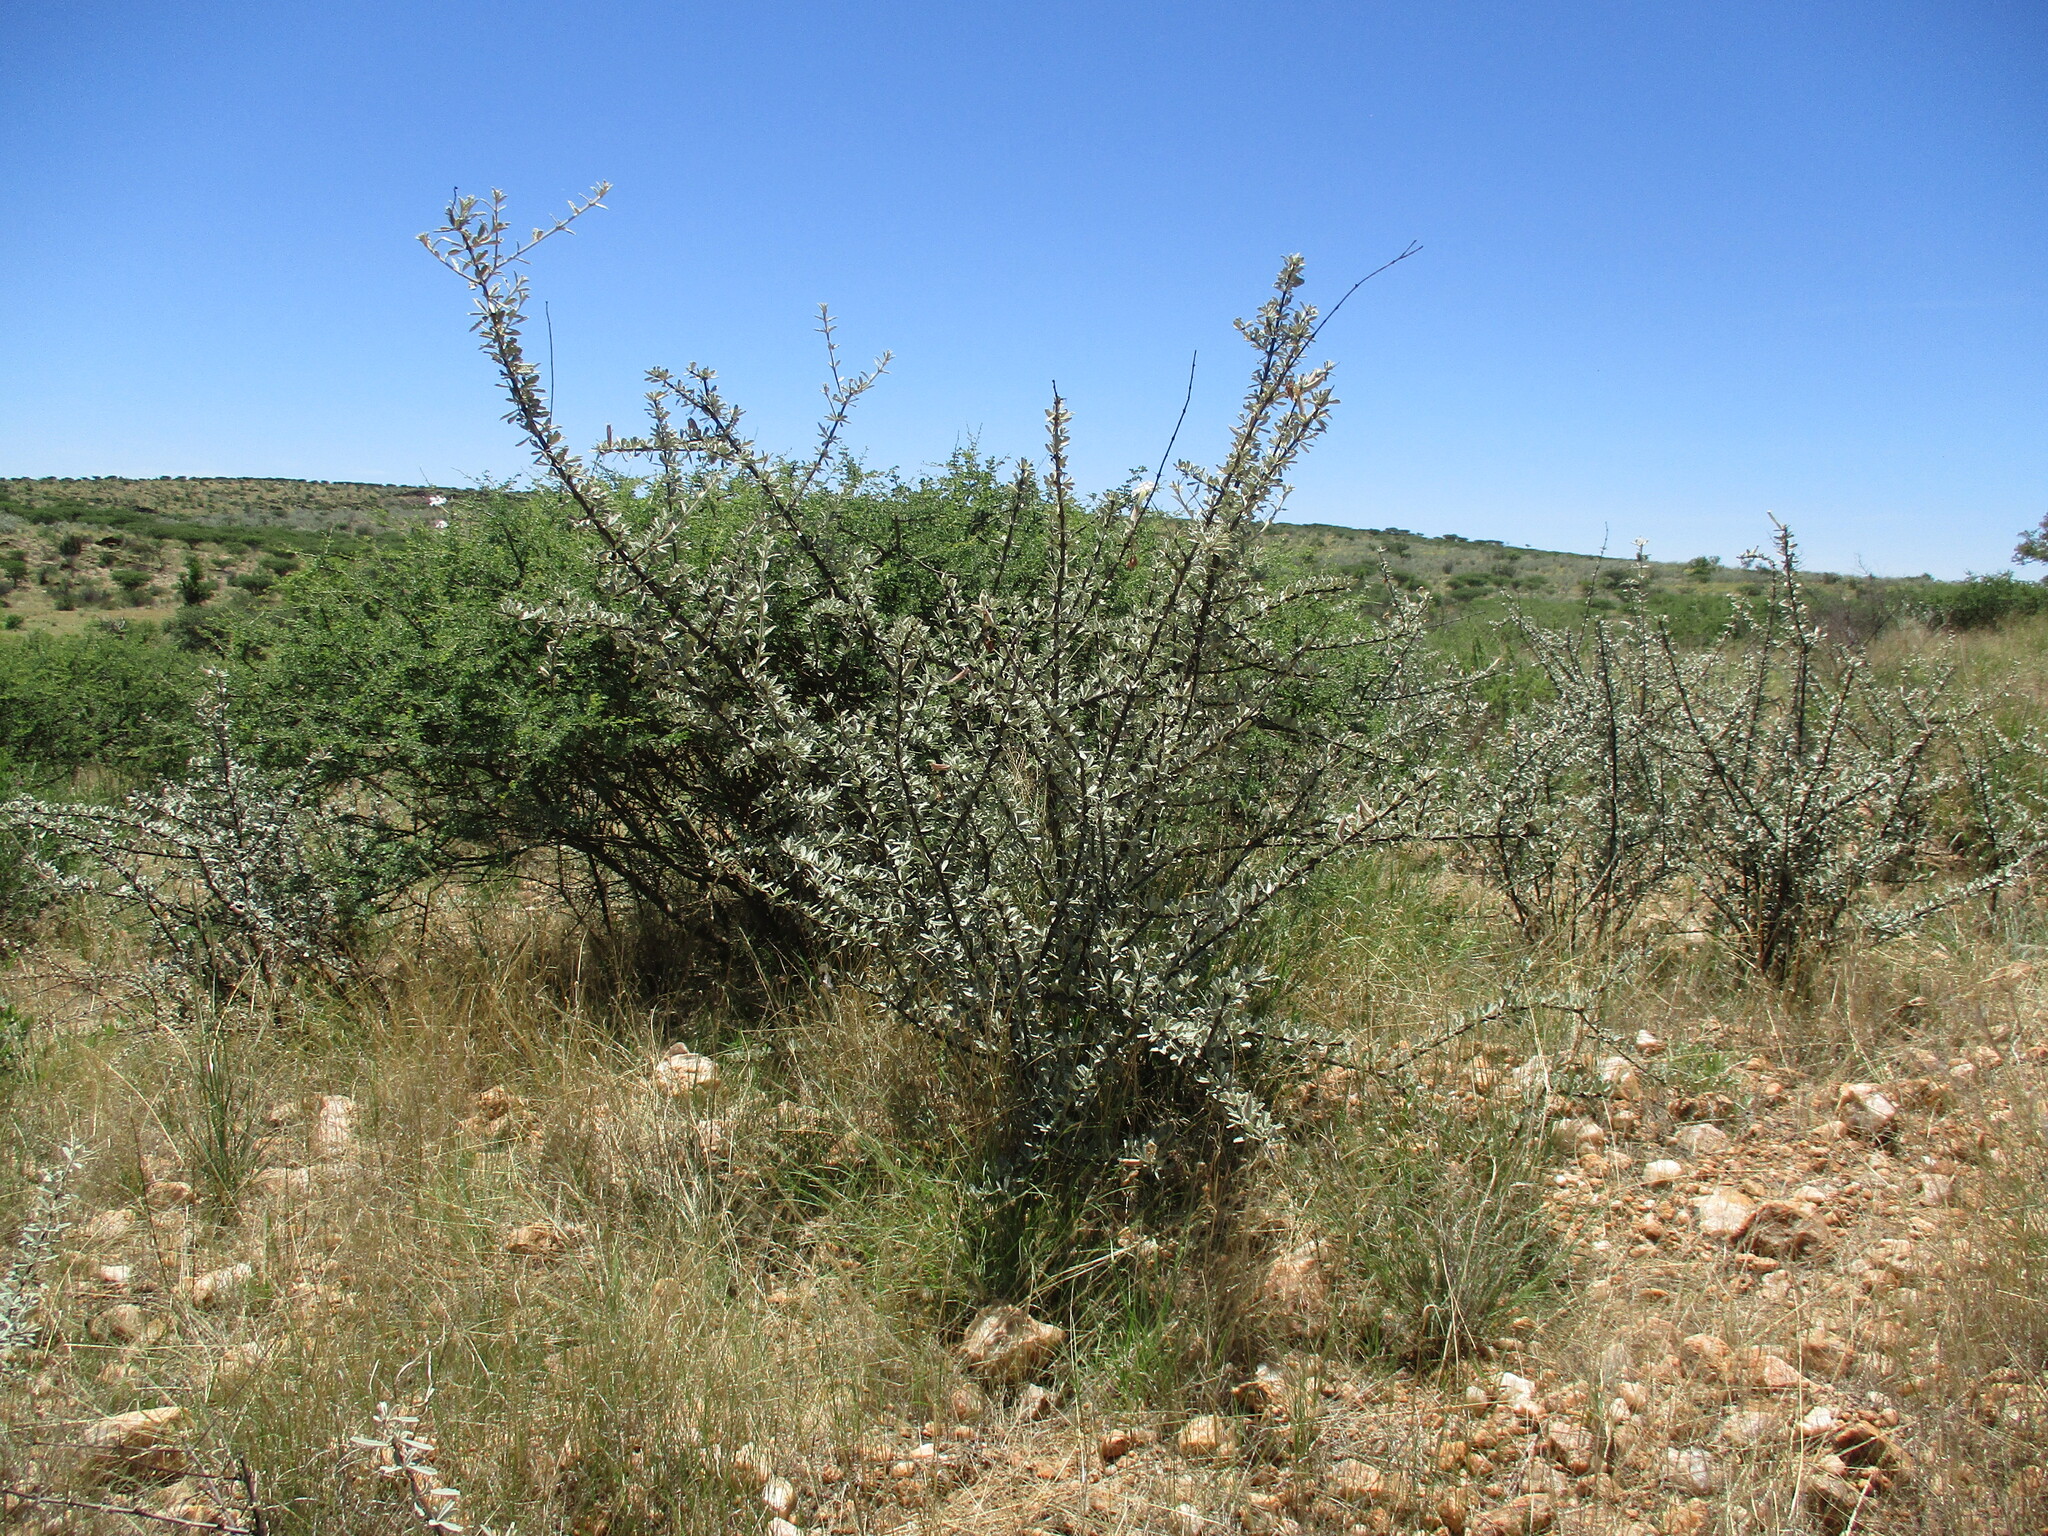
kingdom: Plantae
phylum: Tracheophyta
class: Magnoliopsida
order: Lamiales
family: Bignoniaceae
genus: Catophractes
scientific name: Catophractes alexandri
